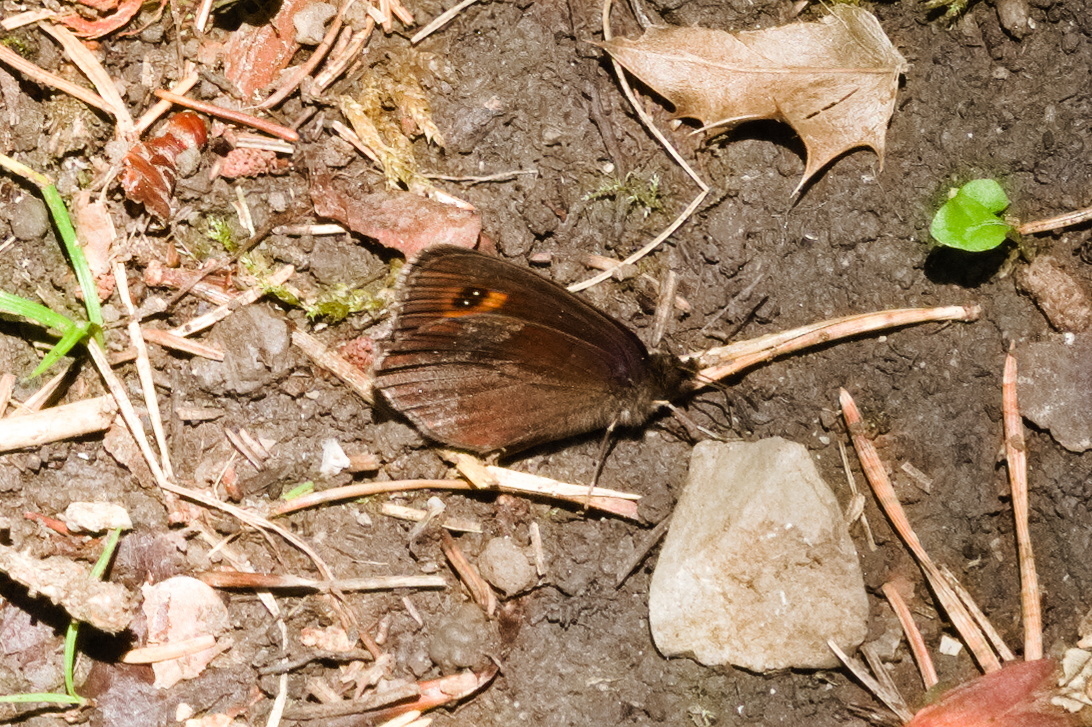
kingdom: Animalia
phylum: Arthropoda
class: Insecta
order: Lepidoptera
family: Nymphalidae
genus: Erebia
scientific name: Erebia aethiops
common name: Scotch argus
